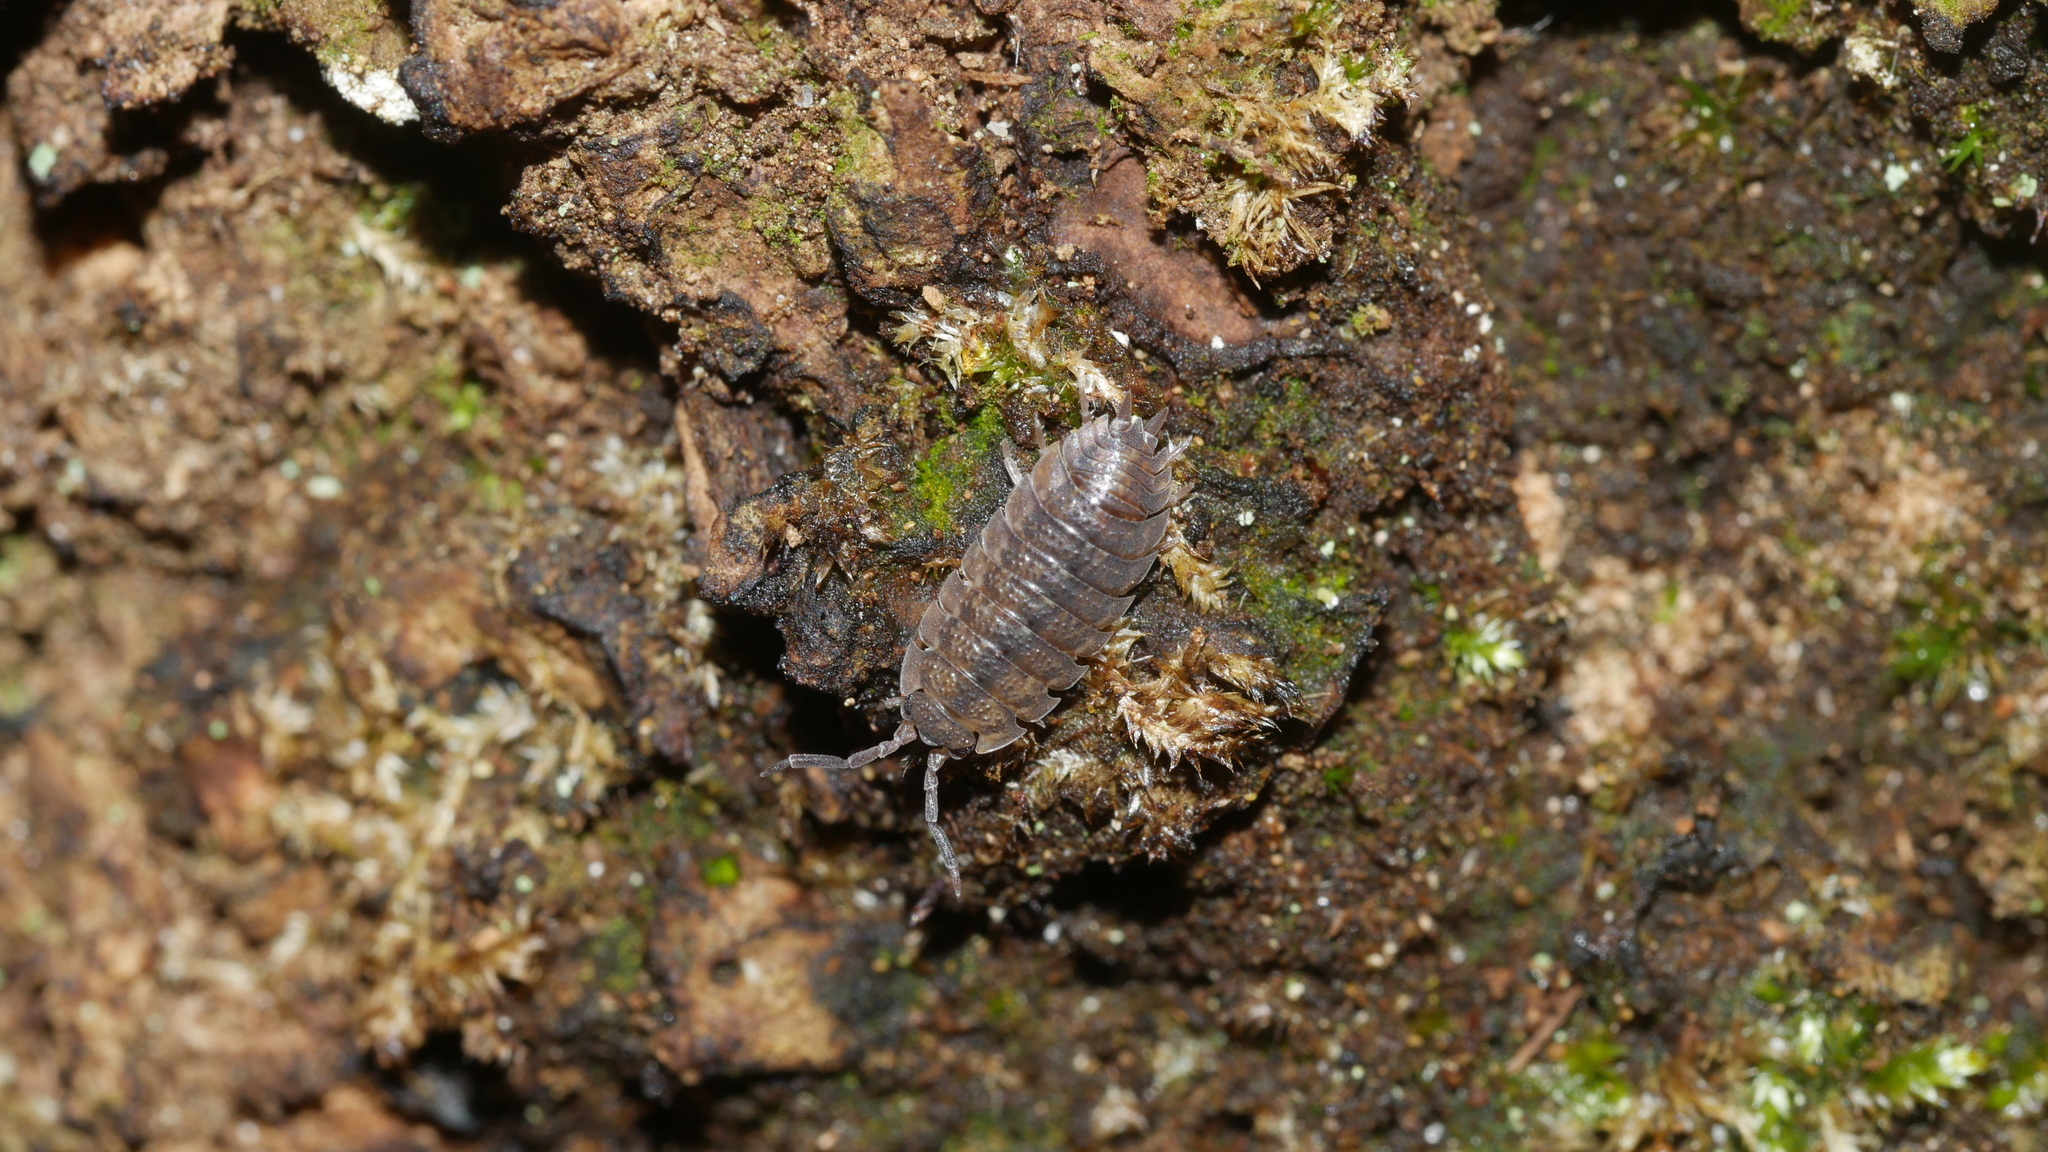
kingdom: Animalia
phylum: Arthropoda
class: Malacostraca
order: Isopoda
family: Porcellionidae
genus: Porcellio
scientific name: Porcellio scaber
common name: Common rough woodlouse
